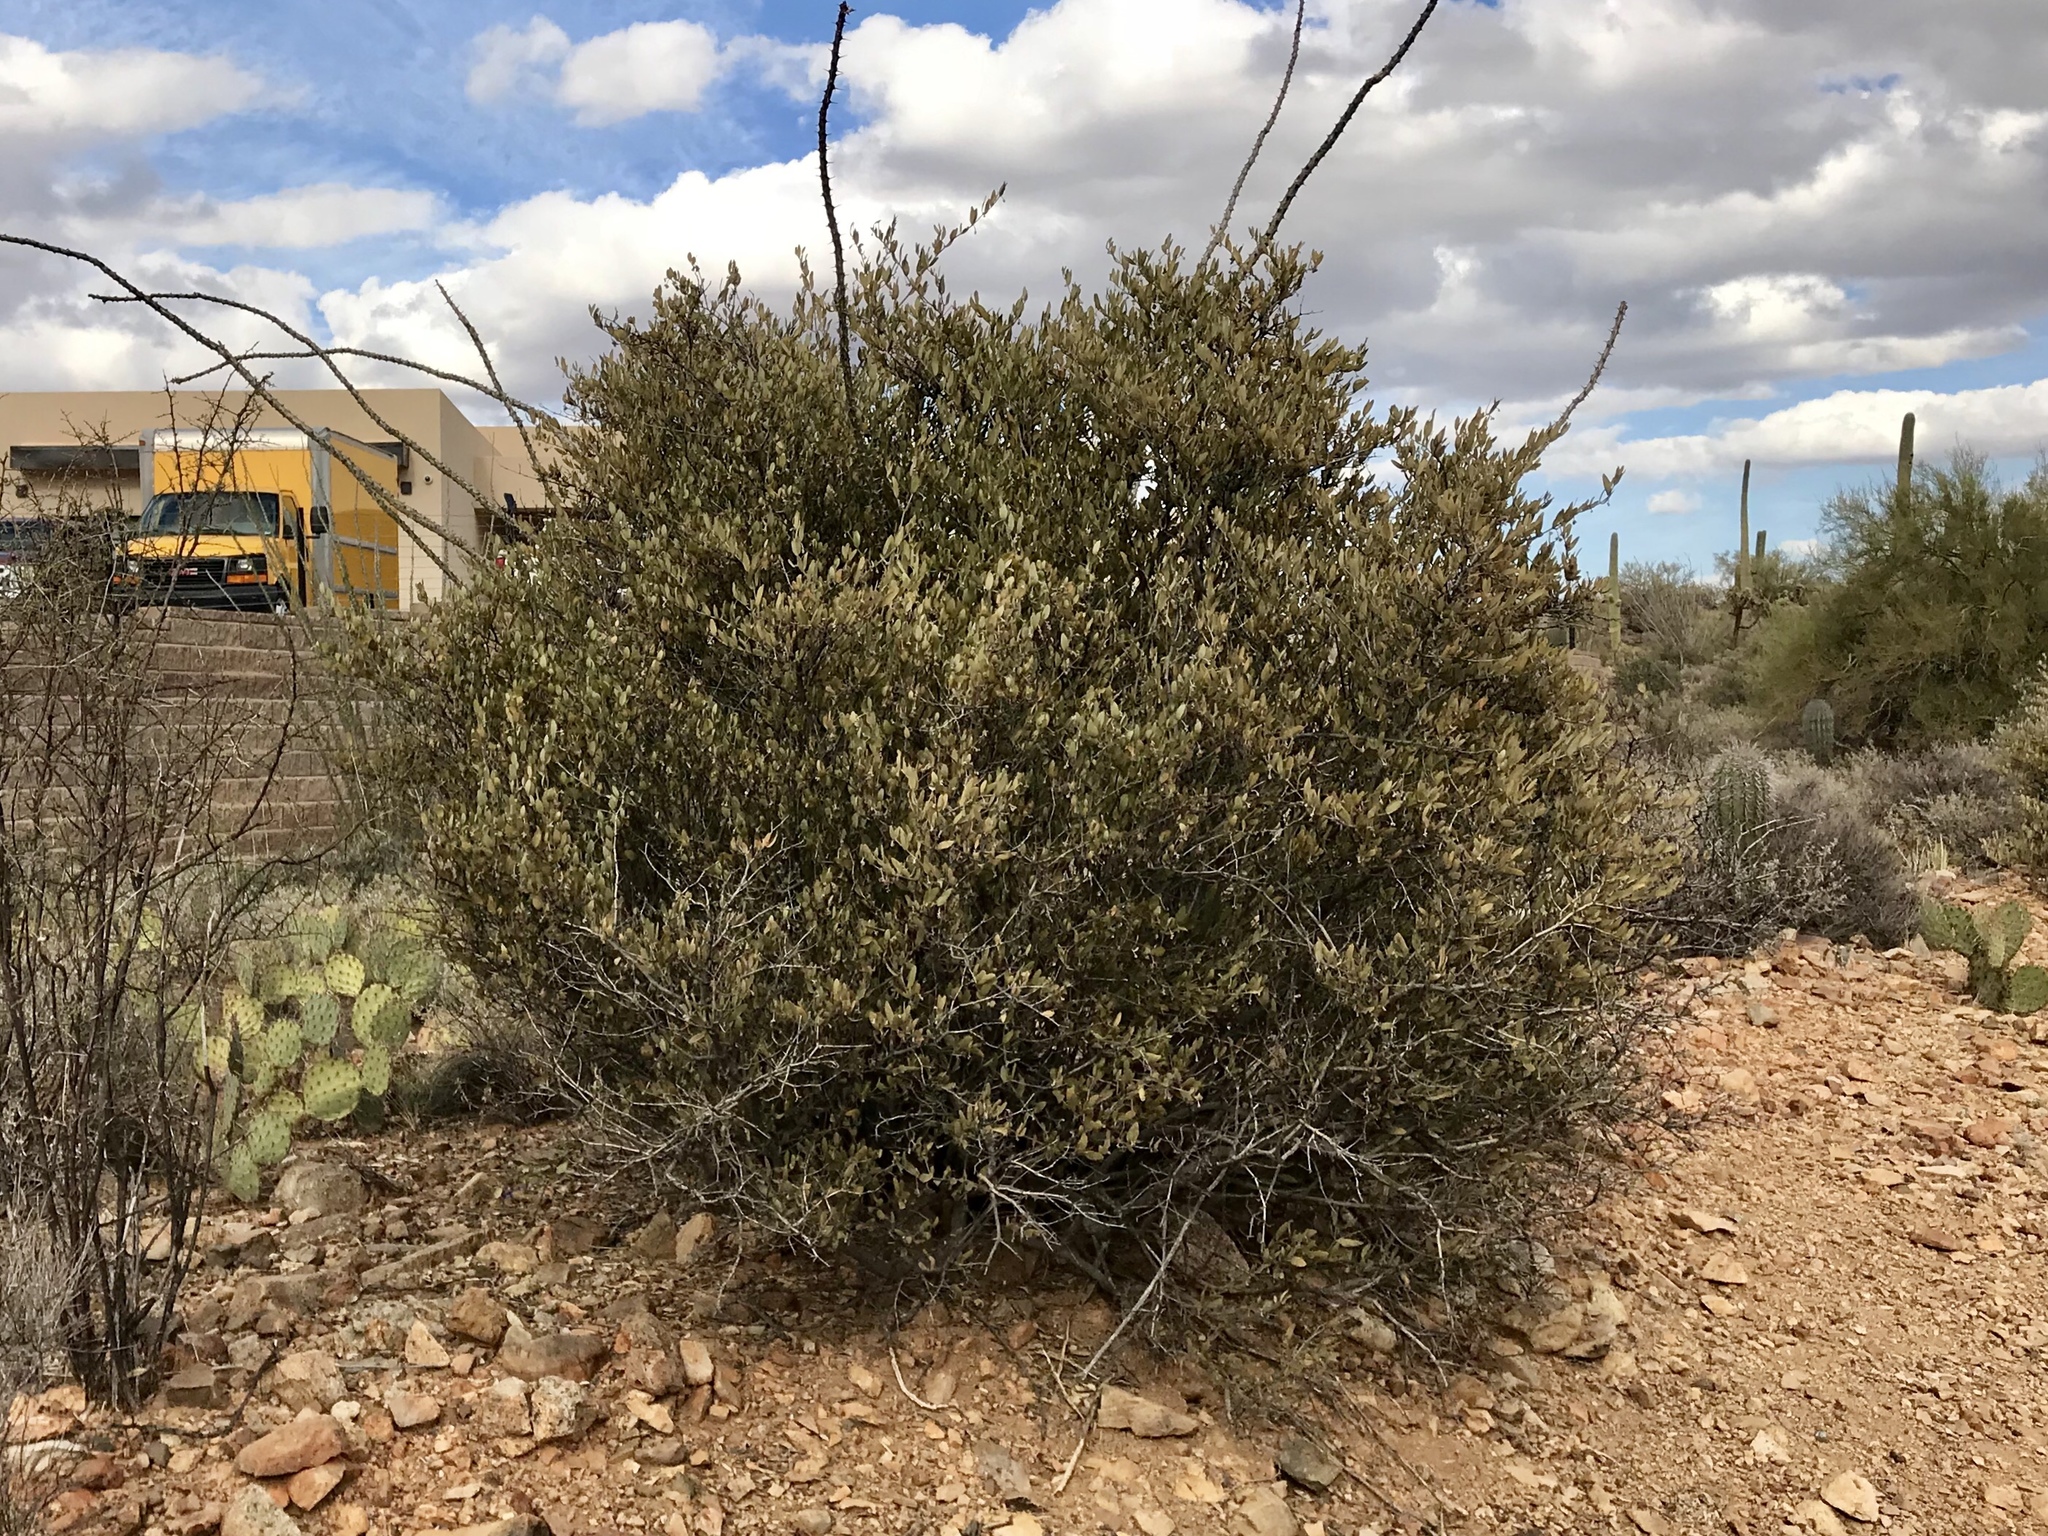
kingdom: Plantae
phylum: Tracheophyta
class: Magnoliopsida
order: Caryophyllales
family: Simmondsiaceae
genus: Simmondsia
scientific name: Simmondsia chinensis
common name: Jojoba
